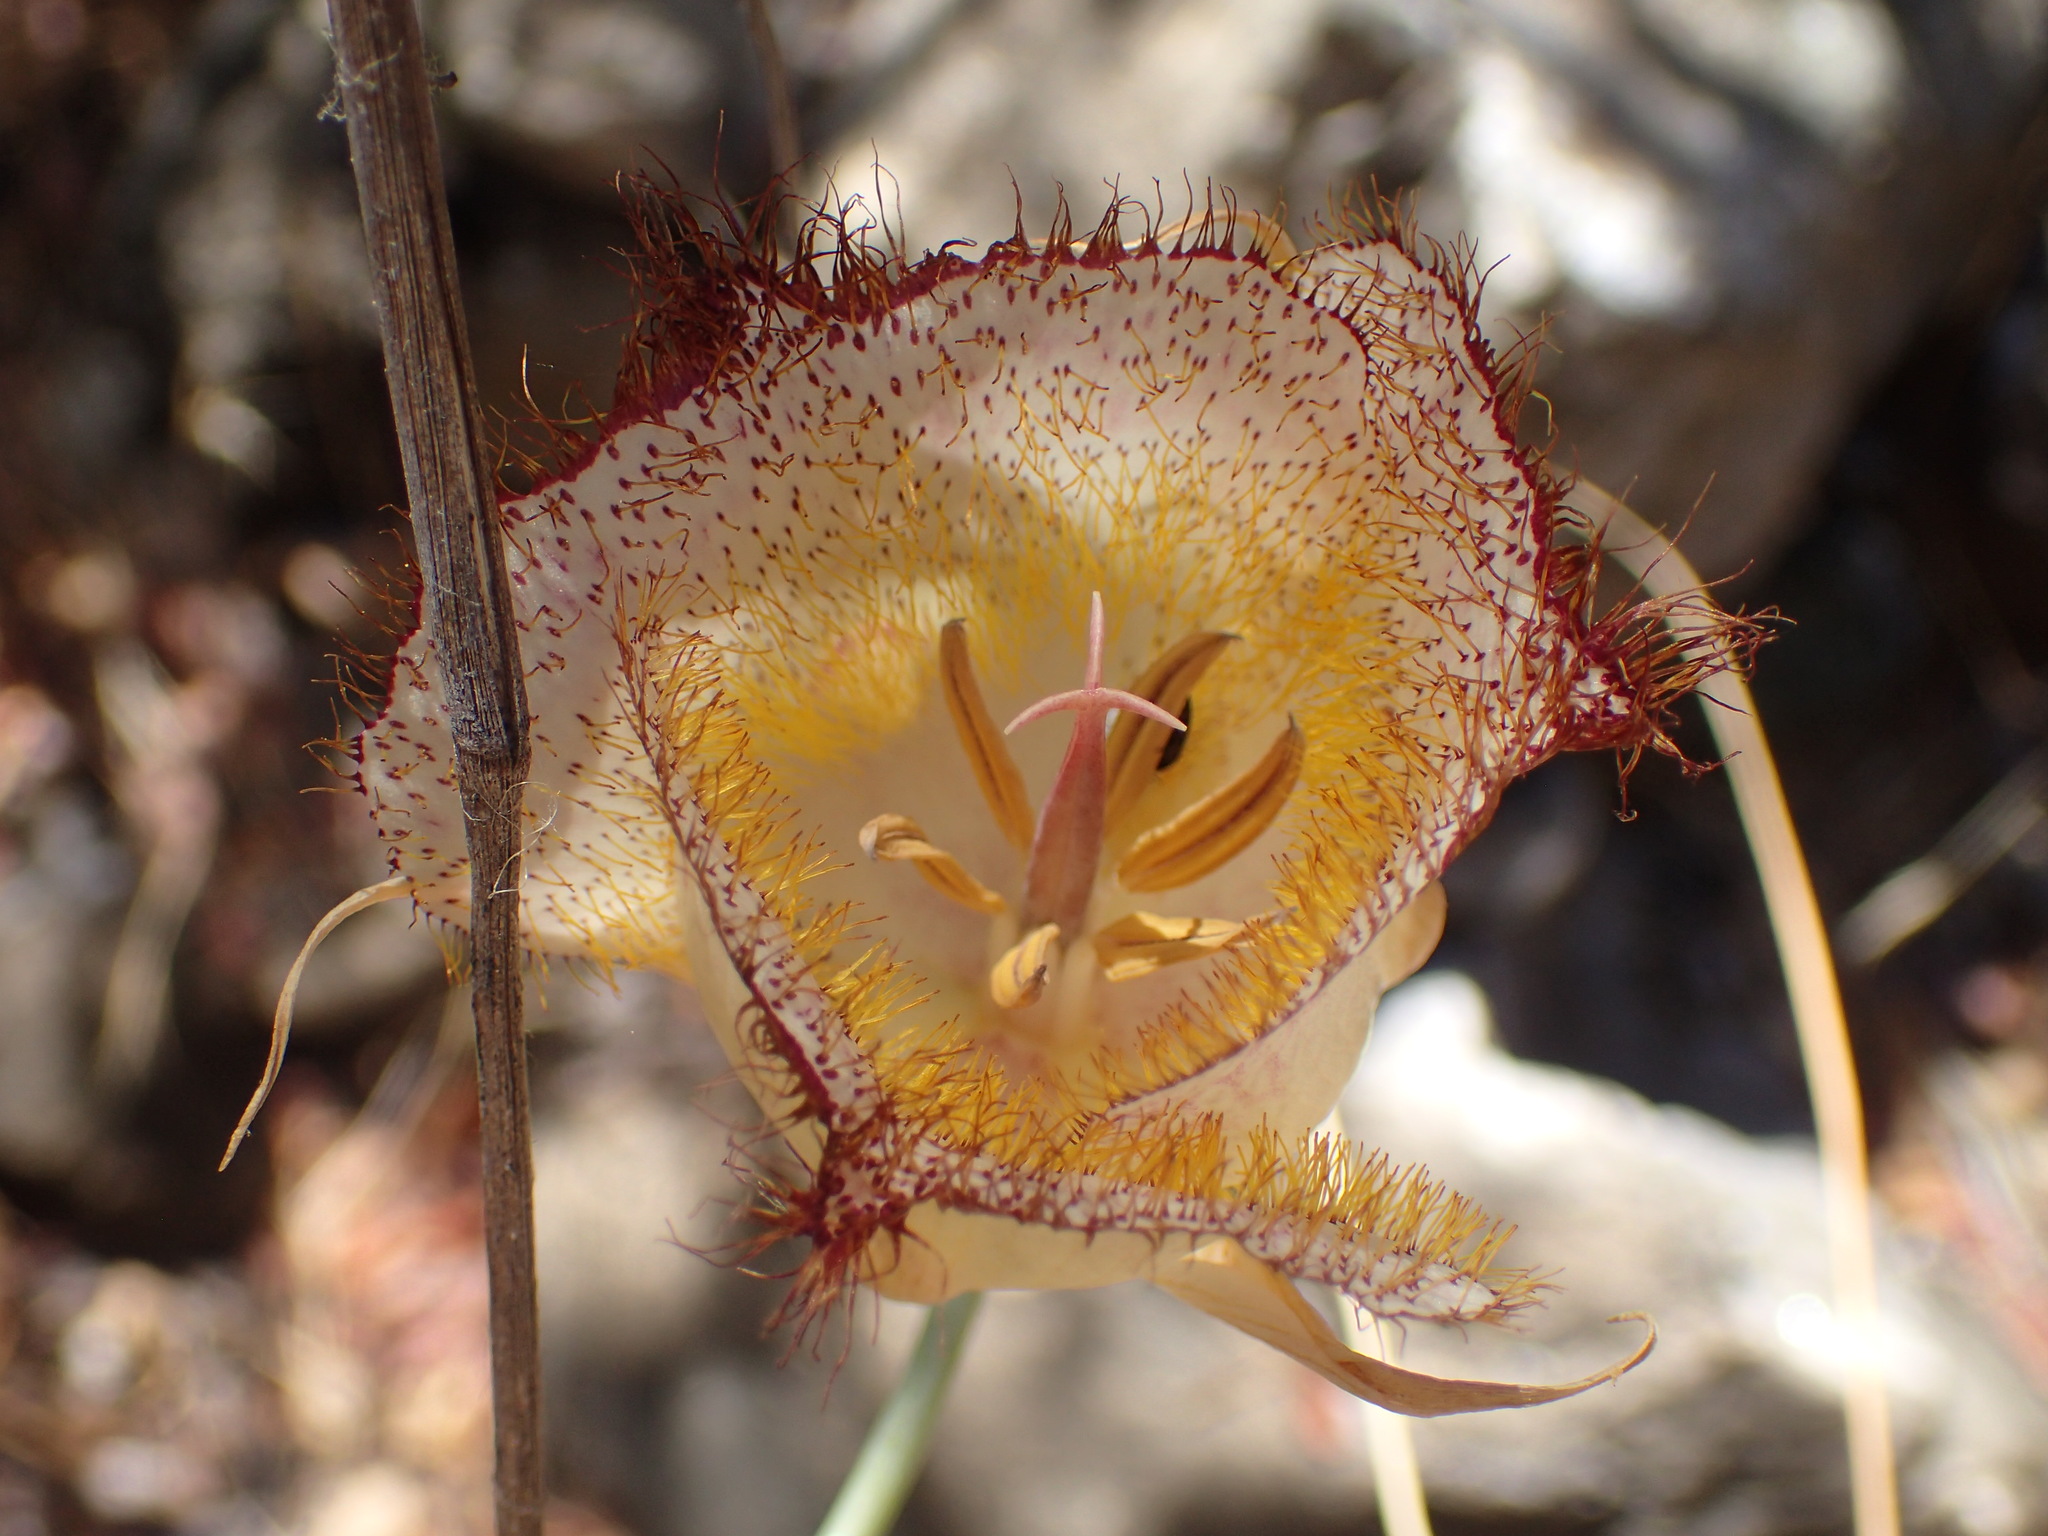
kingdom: Plantae
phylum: Tracheophyta
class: Liliopsida
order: Liliales
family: Liliaceae
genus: Calochortus
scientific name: Calochortus fimbriatus
